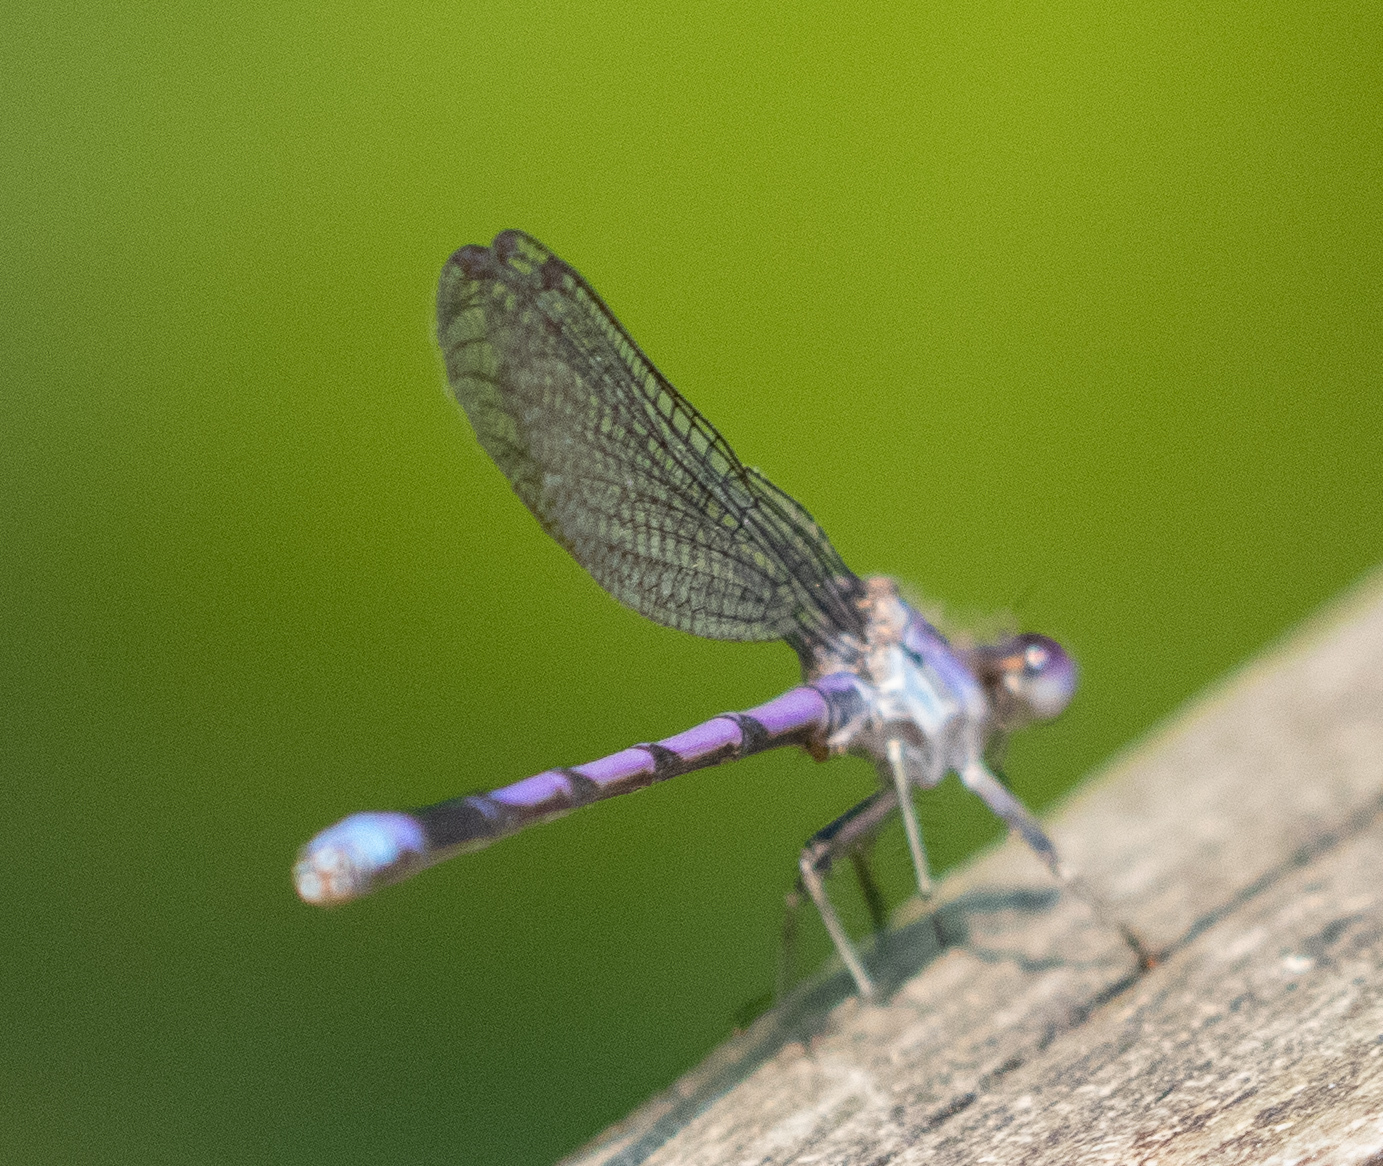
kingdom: Animalia
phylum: Arthropoda
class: Insecta
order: Odonata
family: Coenagrionidae
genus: Argia
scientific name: Argia fumipennis
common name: Variable dancer
